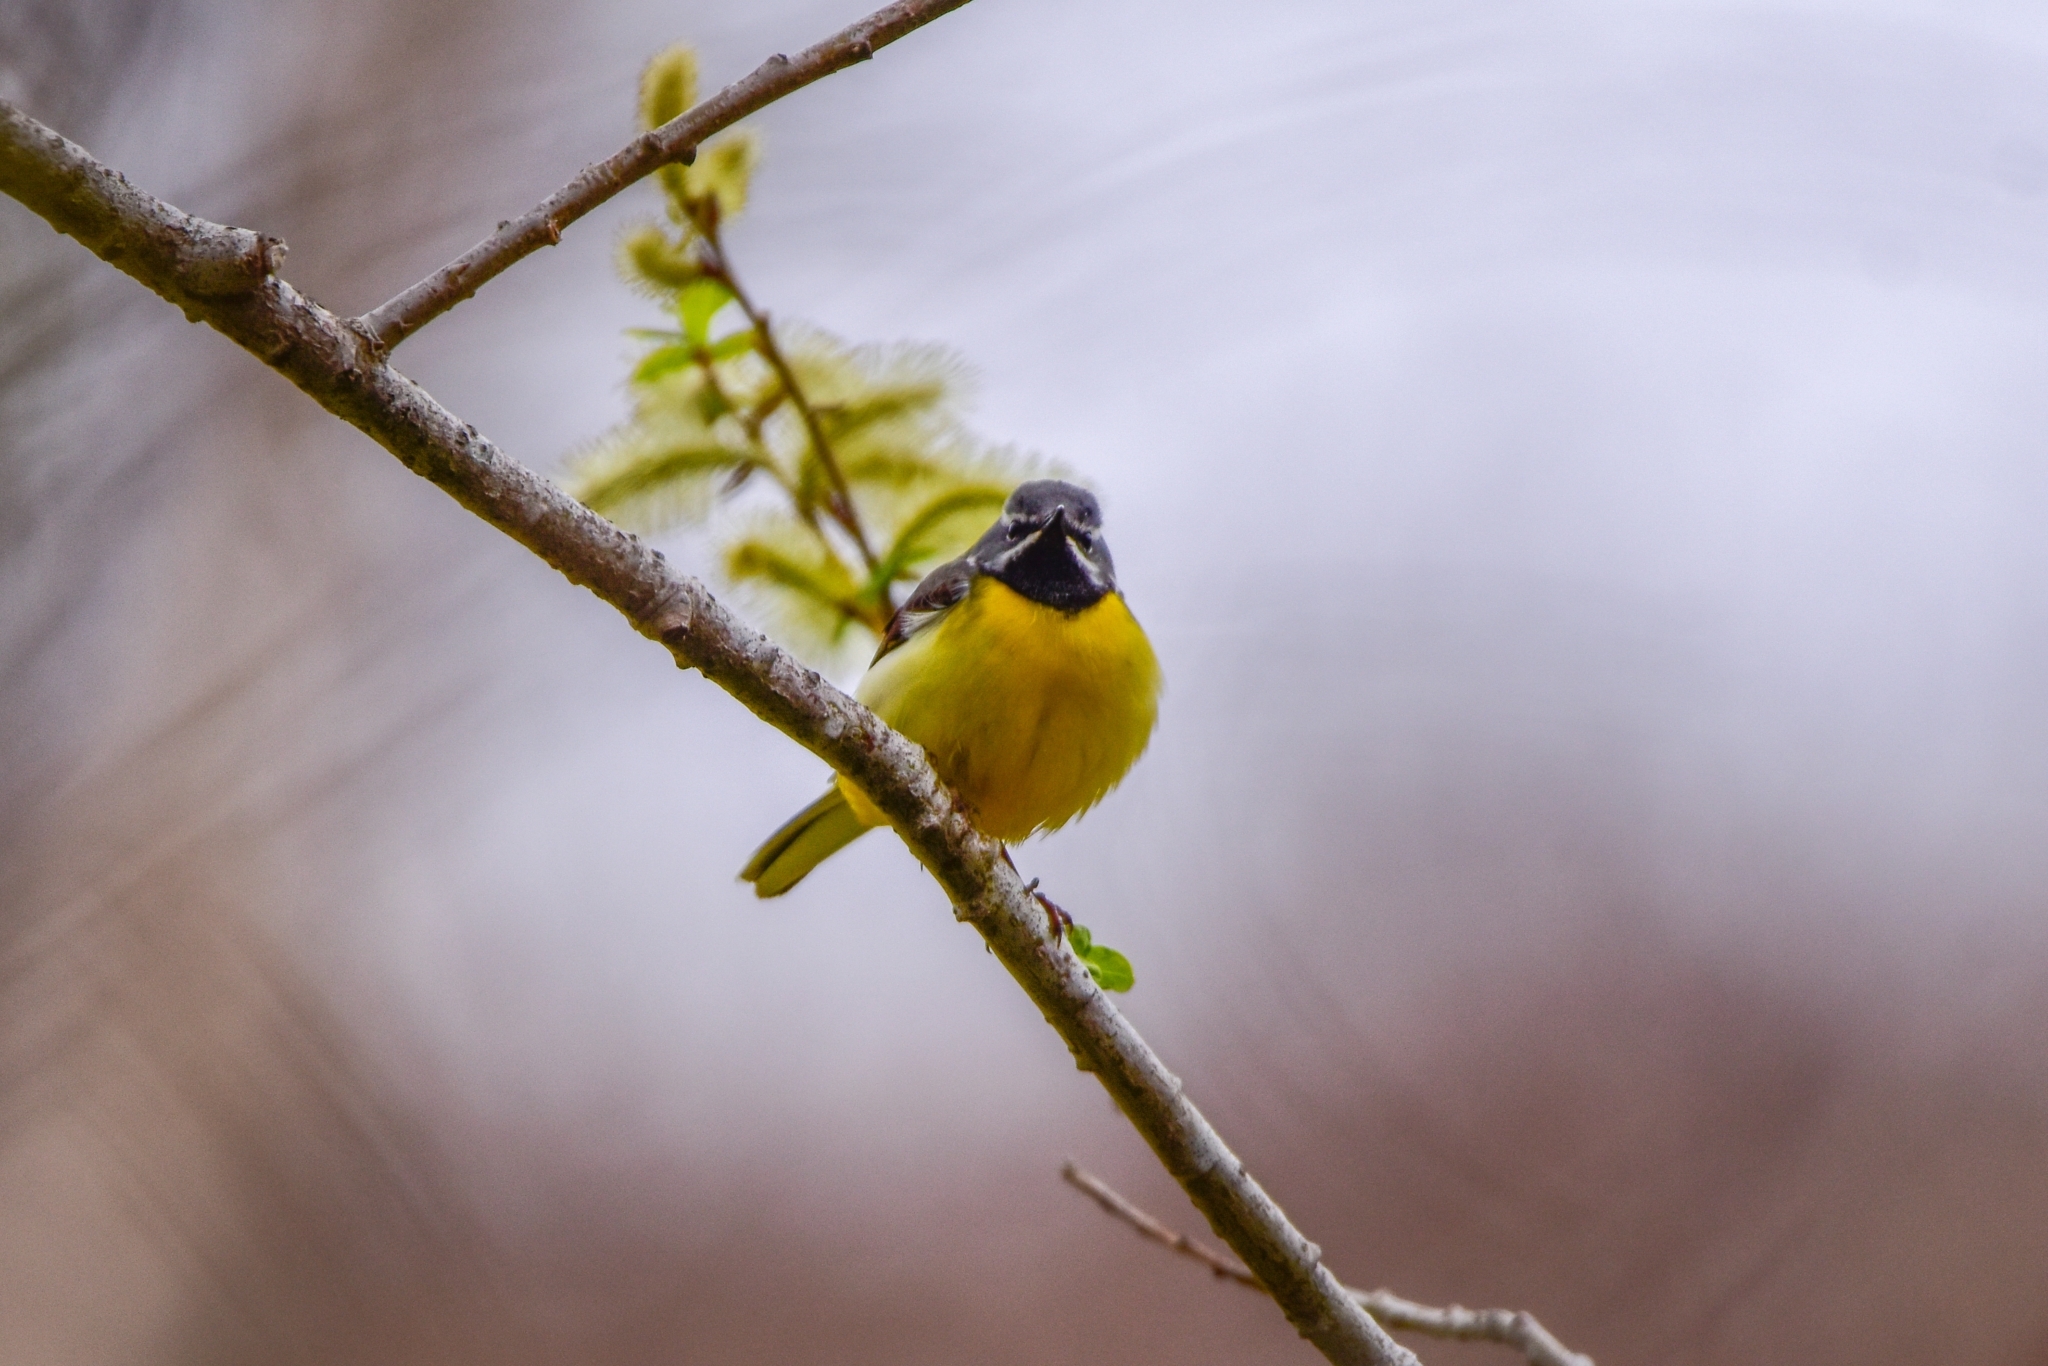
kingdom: Animalia
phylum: Chordata
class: Aves
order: Passeriformes
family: Motacillidae
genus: Motacilla
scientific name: Motacilla cinerea
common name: Grey wagtail
